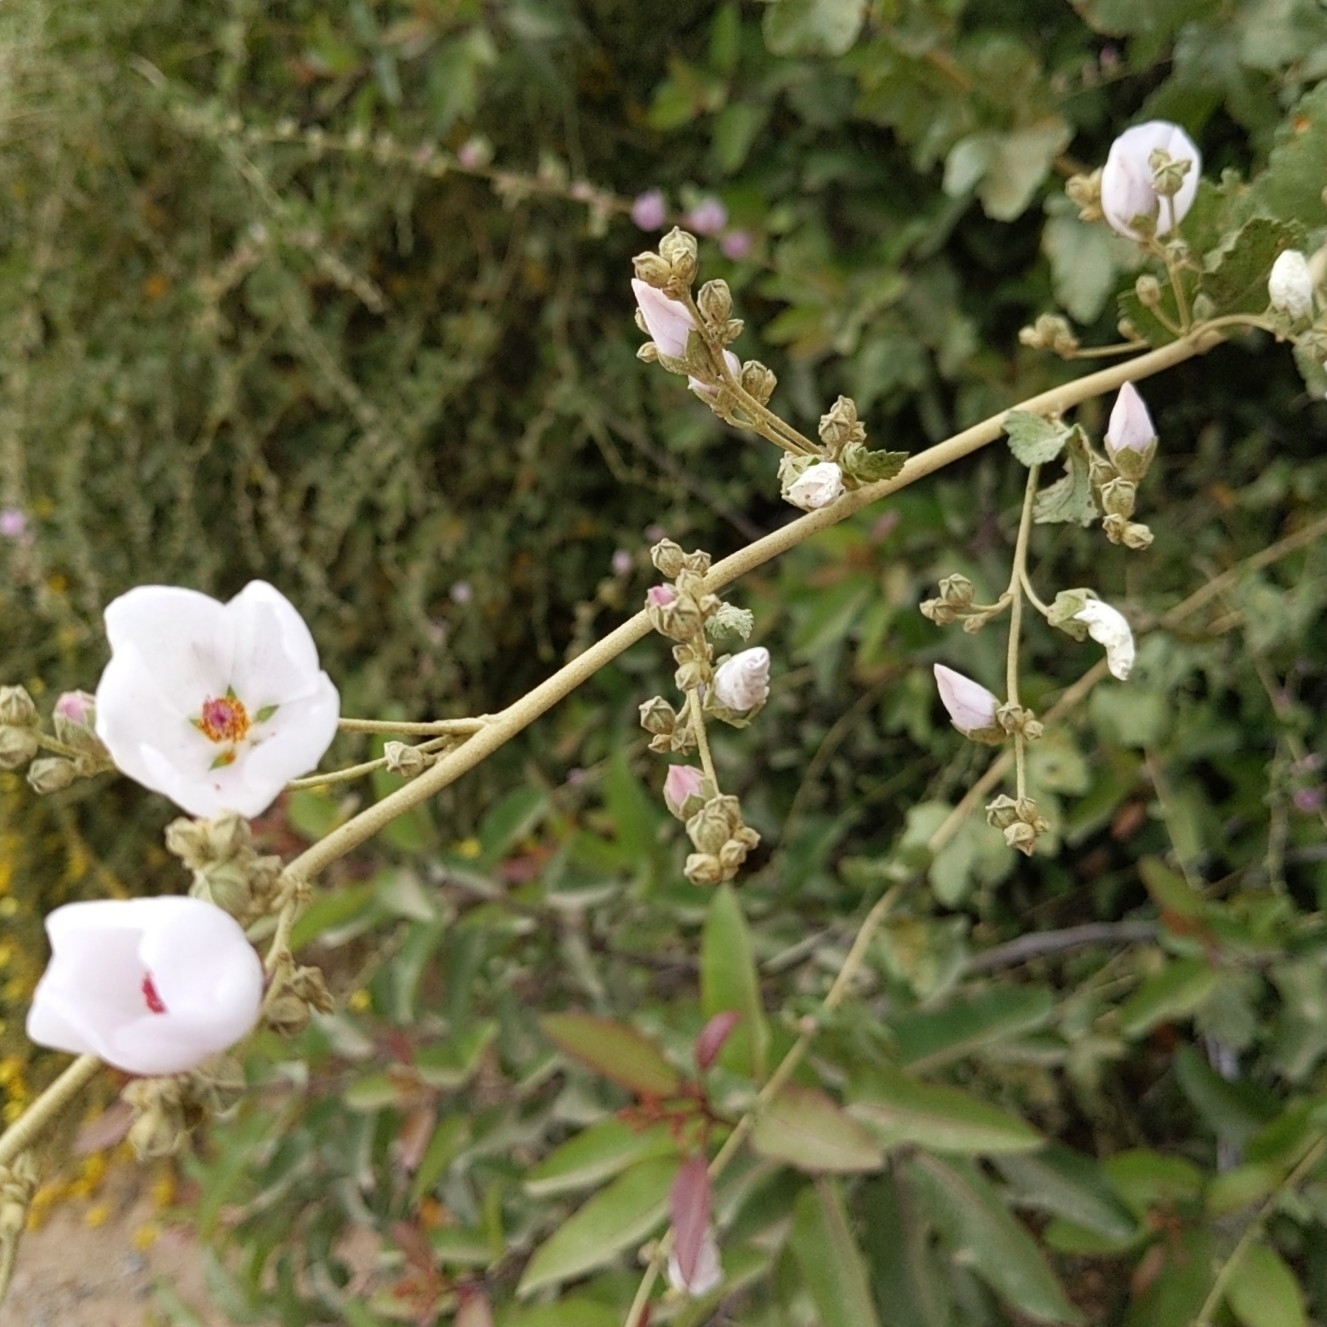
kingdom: Plantae
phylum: Tracheophyta
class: Magnoliopsida
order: Malvales
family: Malvaceae
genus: Malacothamnus
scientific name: Malacothamnus fasciculatus
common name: Sant cruz island bush-mallow
